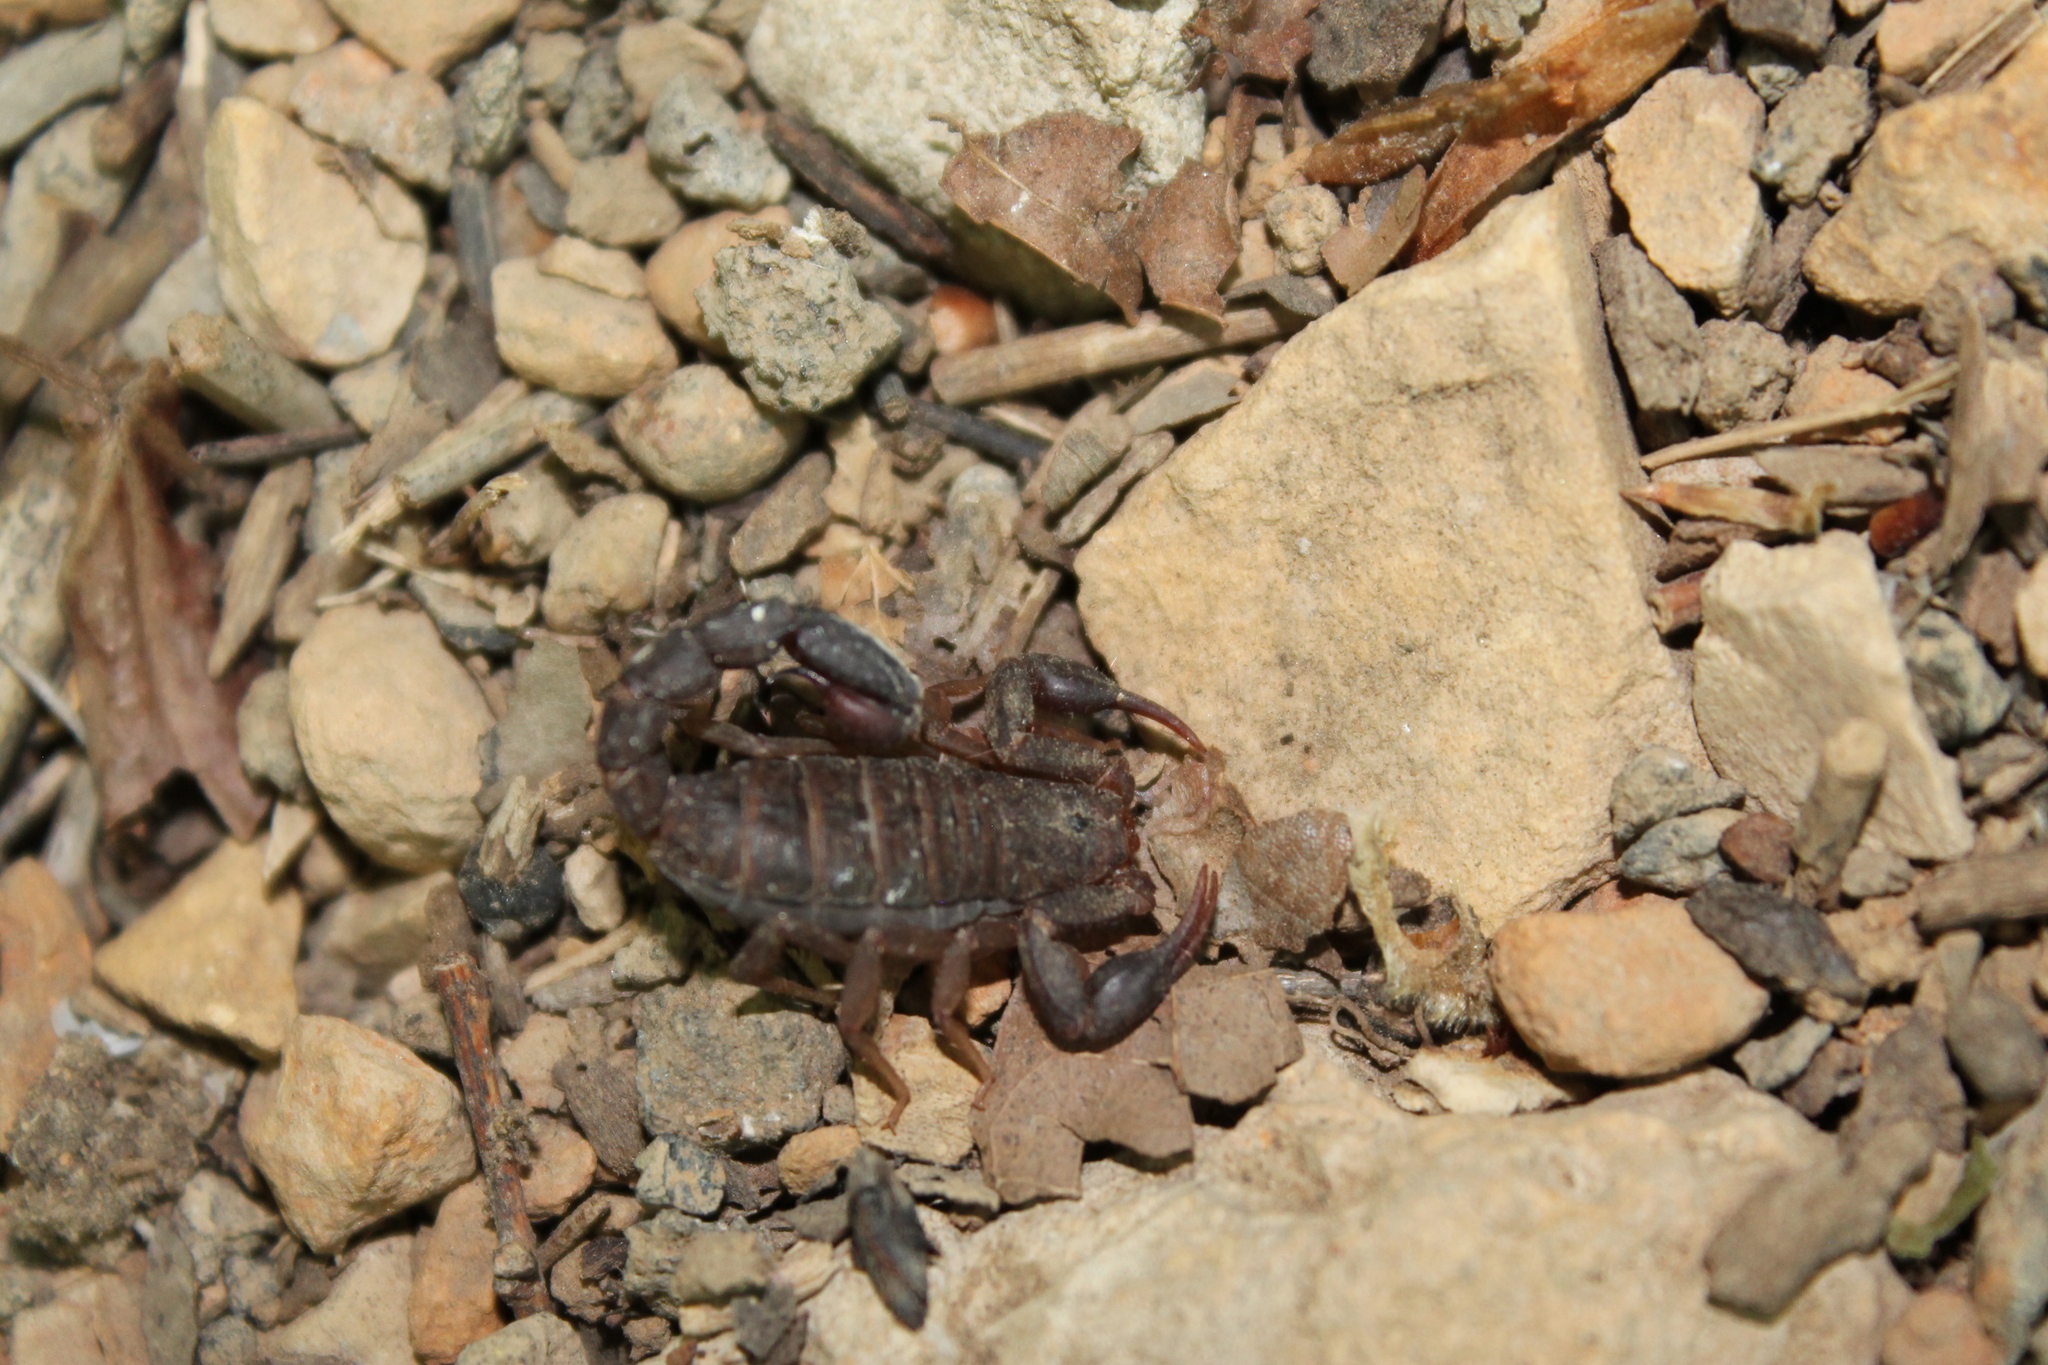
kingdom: Animalia
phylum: Arthropoda
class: Arachnida
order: Scorpiones
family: Vaejovidae
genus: Vaejovis
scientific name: Vaejovis carolinianus
